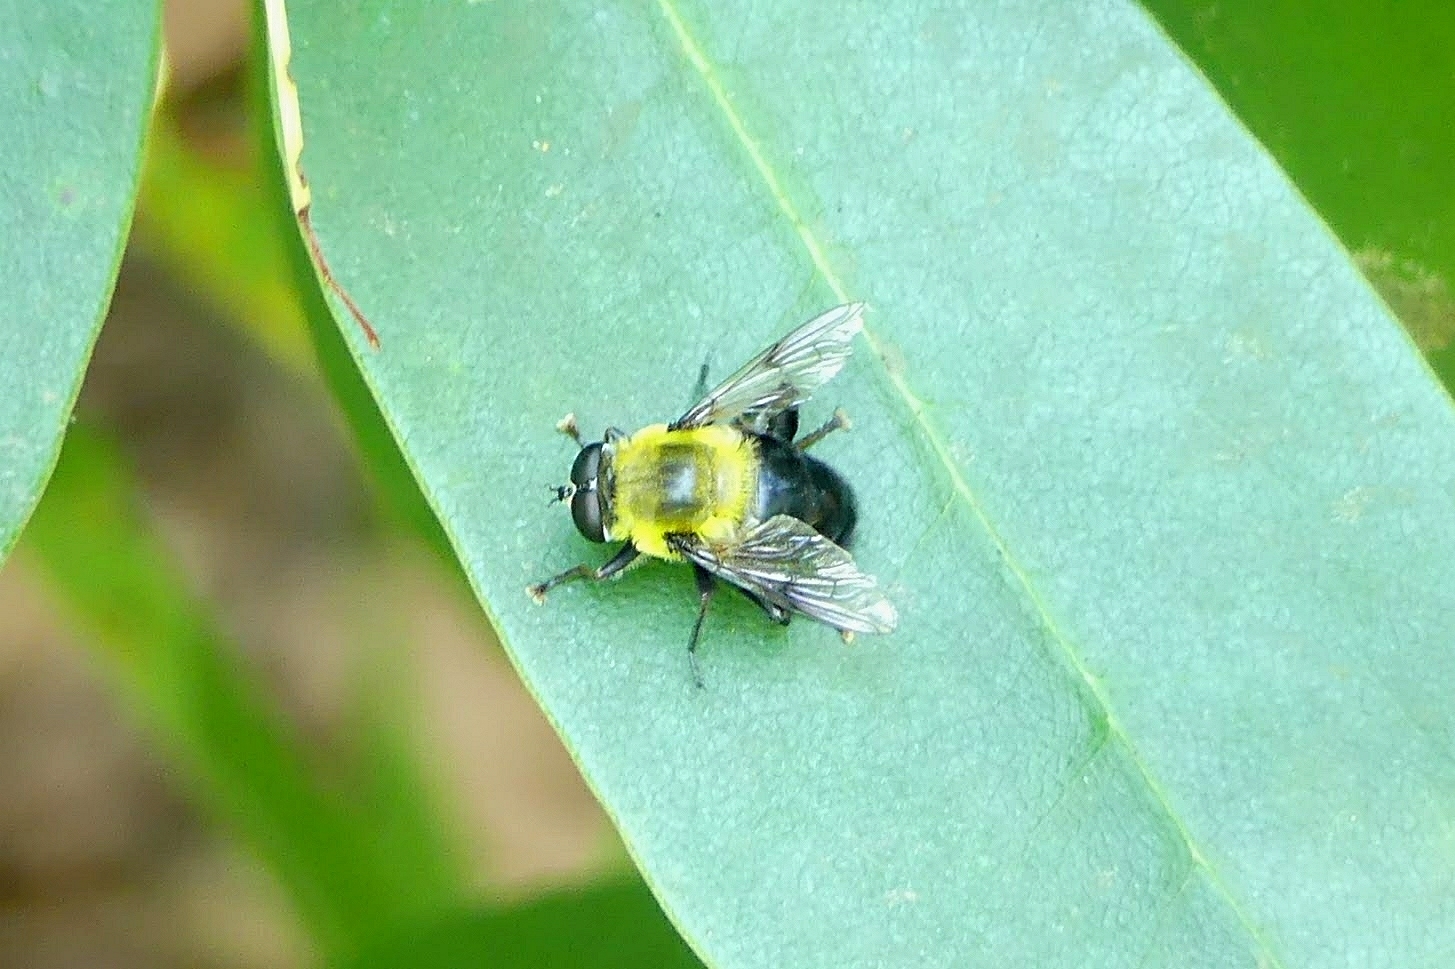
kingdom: Animalia
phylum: Arthropoda
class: Insecta
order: Diptera
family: Syrphidae
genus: Imatisma
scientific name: Imatisma bautias
